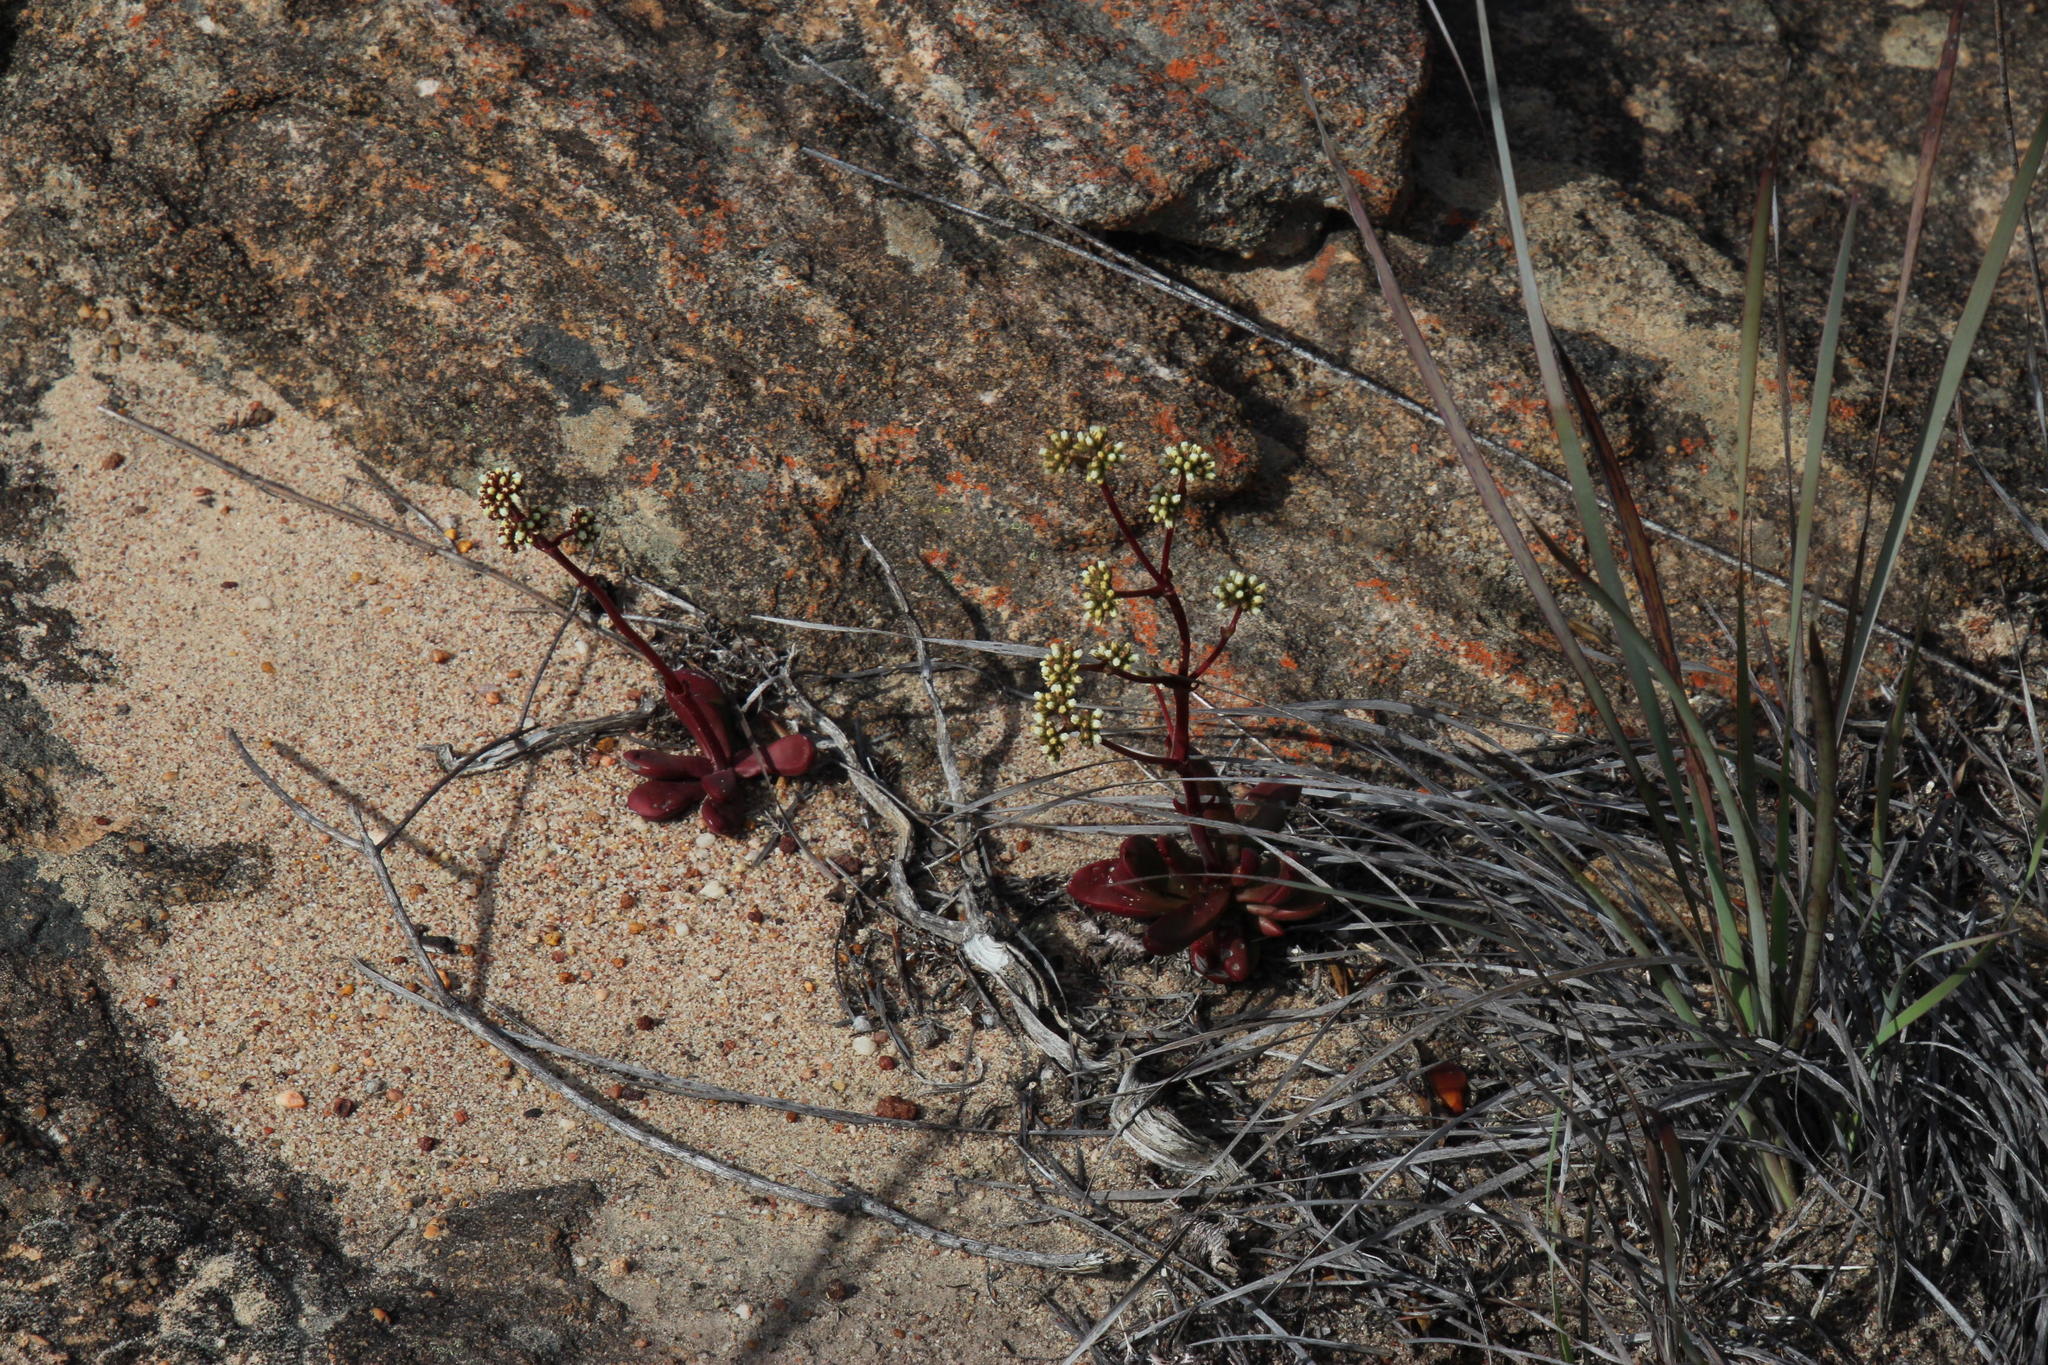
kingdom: Plantae
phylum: Tracheophyta
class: Magnoliopsida
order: Saxifragales
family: Crassulaceae
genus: Crassula
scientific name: Crassula clavata
